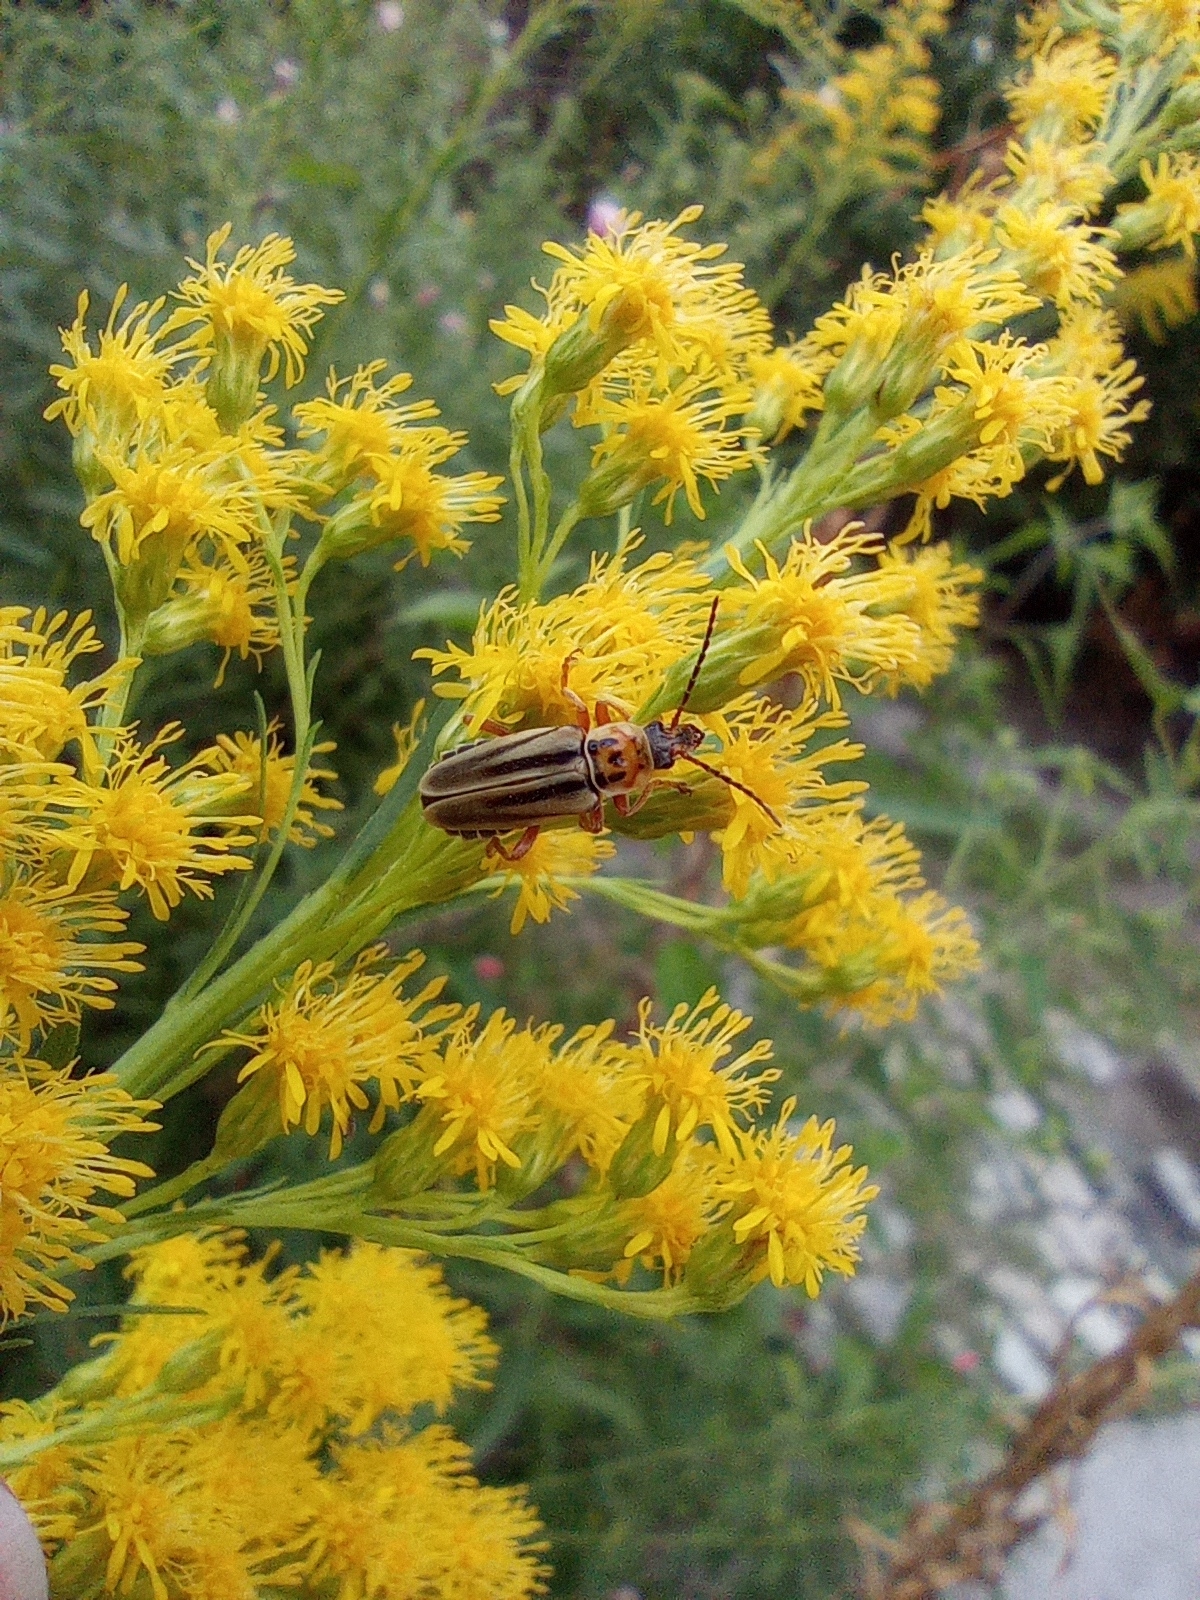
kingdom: Animalia
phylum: Arthropoda
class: Insecta
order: Coleoptera
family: Cantharidae
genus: Chauliognathus
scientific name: Chauliognathus
